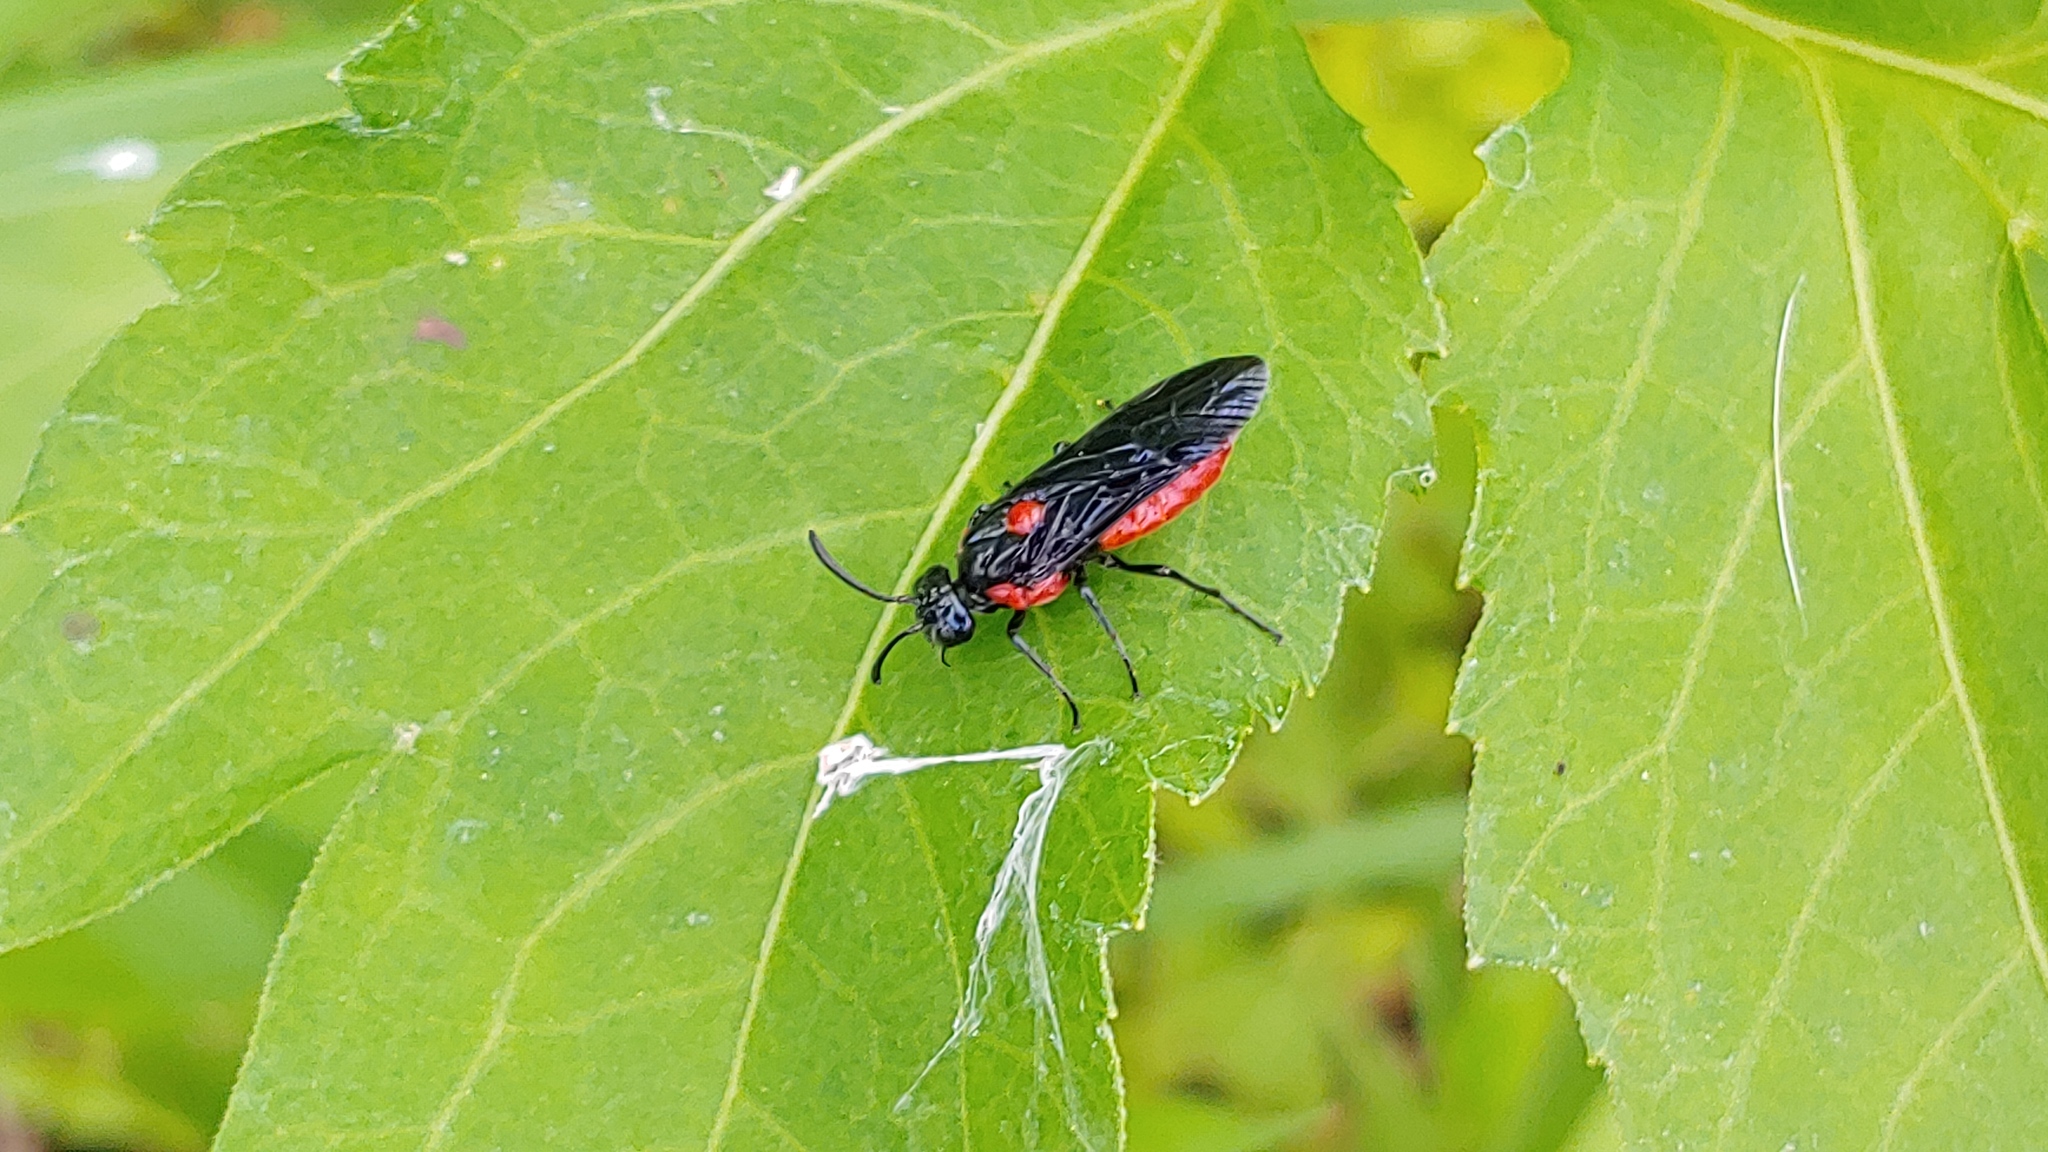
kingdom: Animalia
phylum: Arthropoda
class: Insecta
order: Hymenoptera
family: Argidae
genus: Arge
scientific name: Arge humeralis
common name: Poison ivy sawfly
